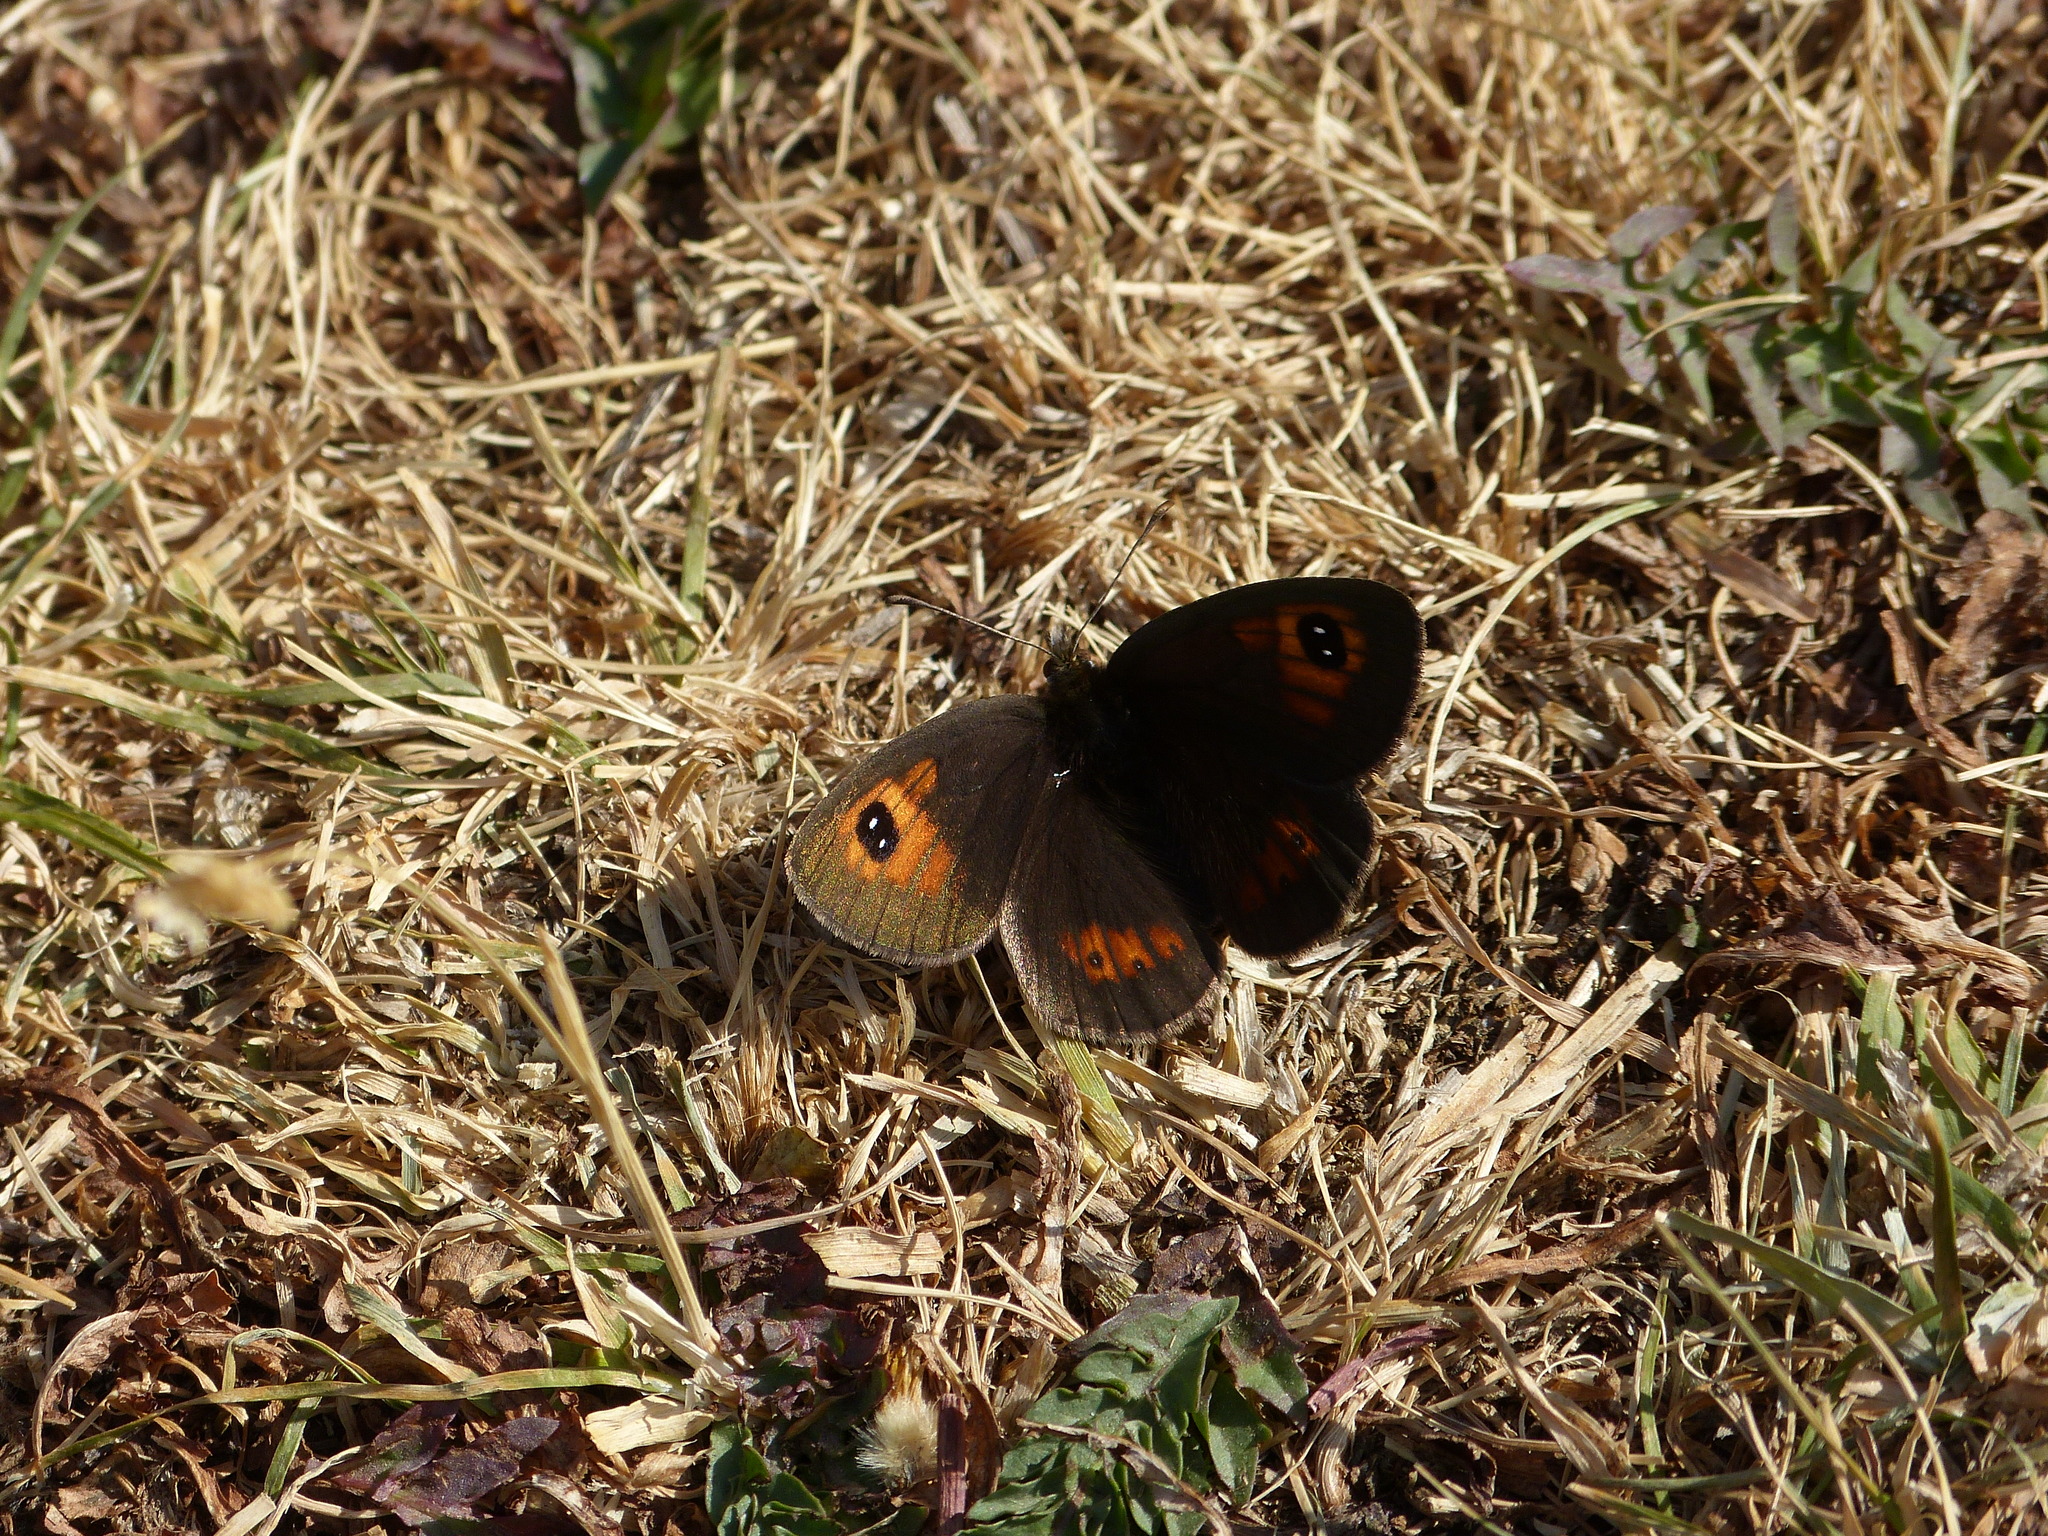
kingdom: Animalia
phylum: Arthropoda
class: Insecta
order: Lepidoptera
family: Nymphalidae
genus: Erebia
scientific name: Erebia tyndarus
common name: Swiss brassy ringlet
